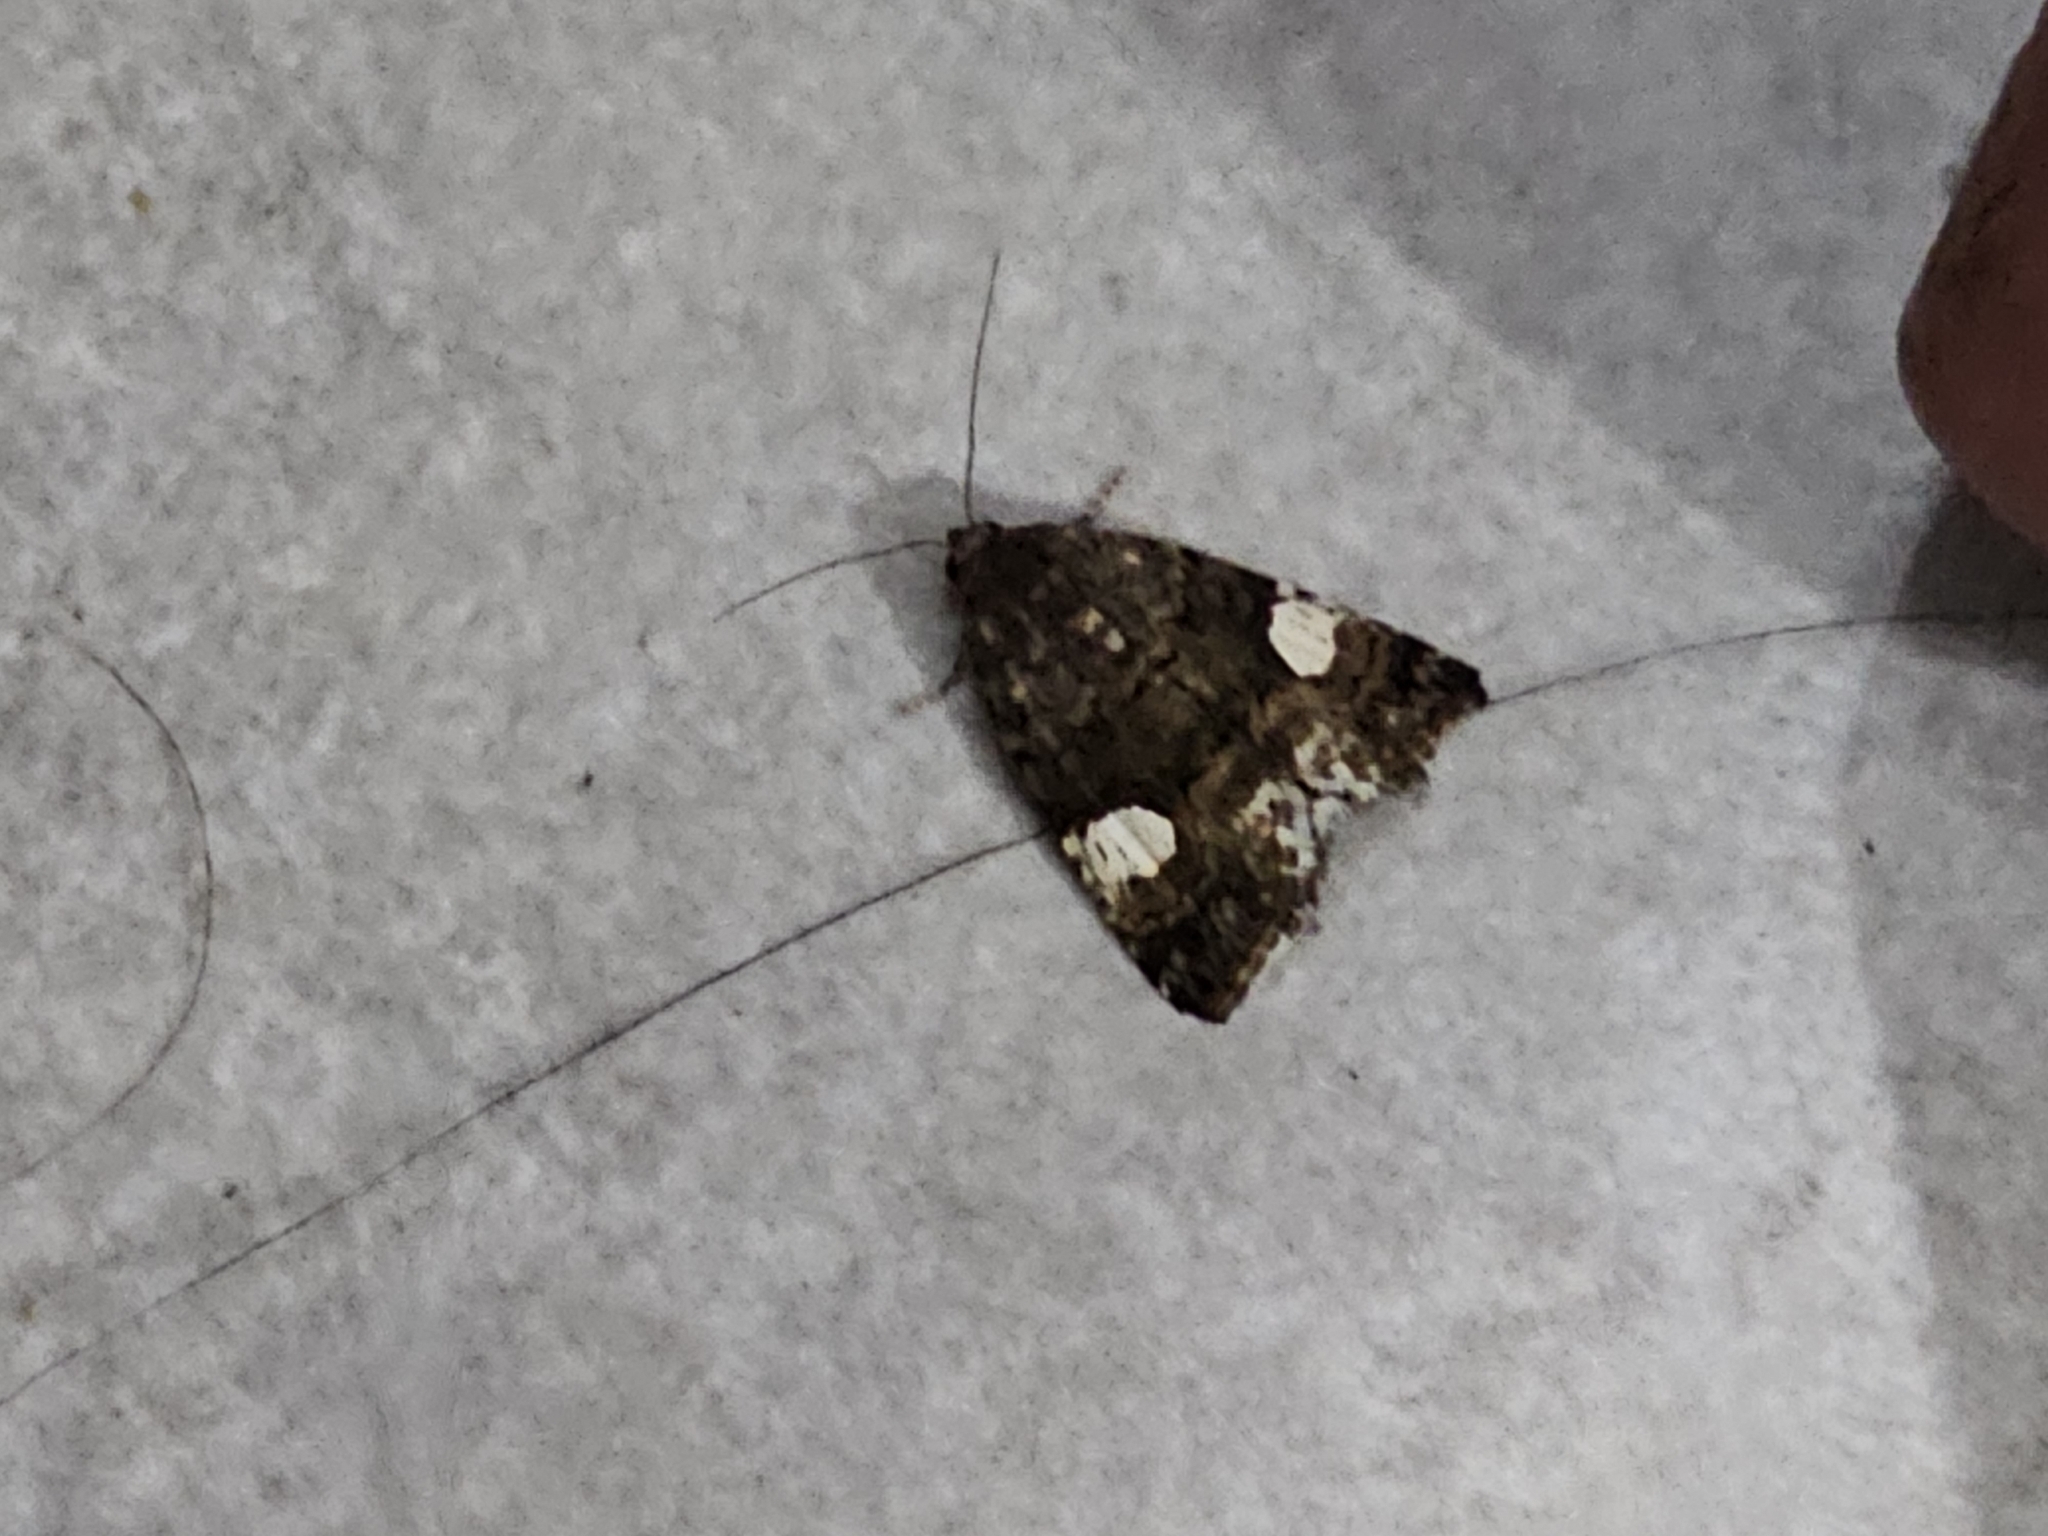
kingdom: Animalia
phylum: Arthropoda
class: Insecta
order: Lepidoptera
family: Erebidae
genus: Tyta
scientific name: Tyta luctuosa
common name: Four-spotted
